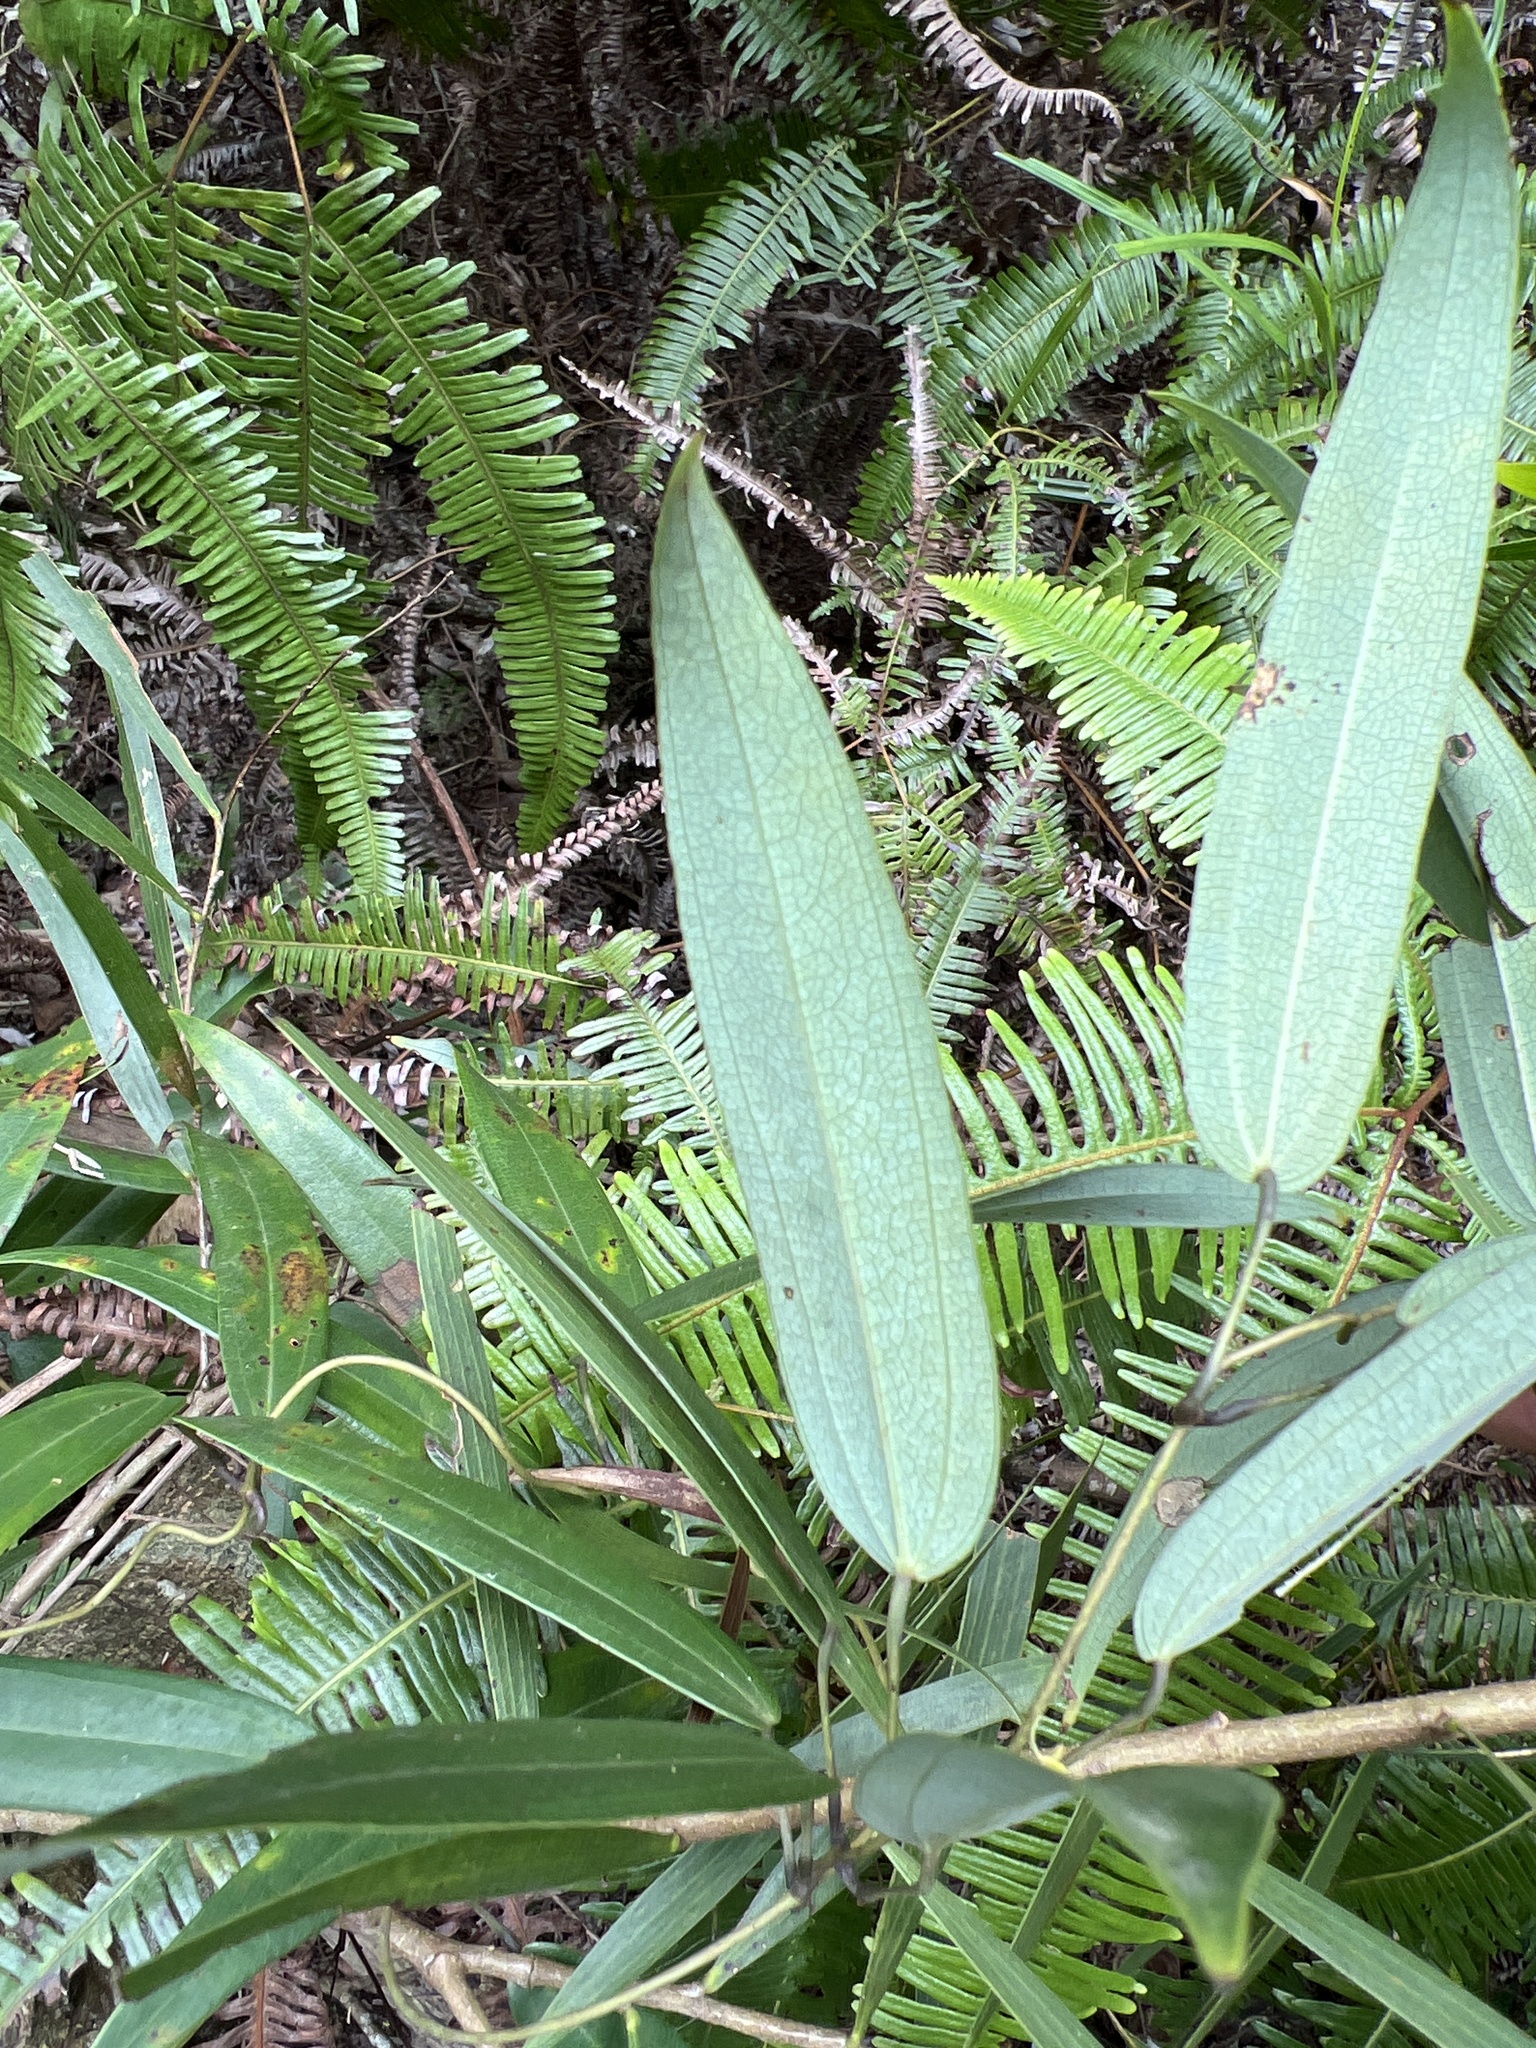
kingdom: Plantae
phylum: Tracheophyta
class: Liliopsida
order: Dioscoreales
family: Dioscoreaceae
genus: Dioscorea
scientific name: Dioscorea cirrhosa
